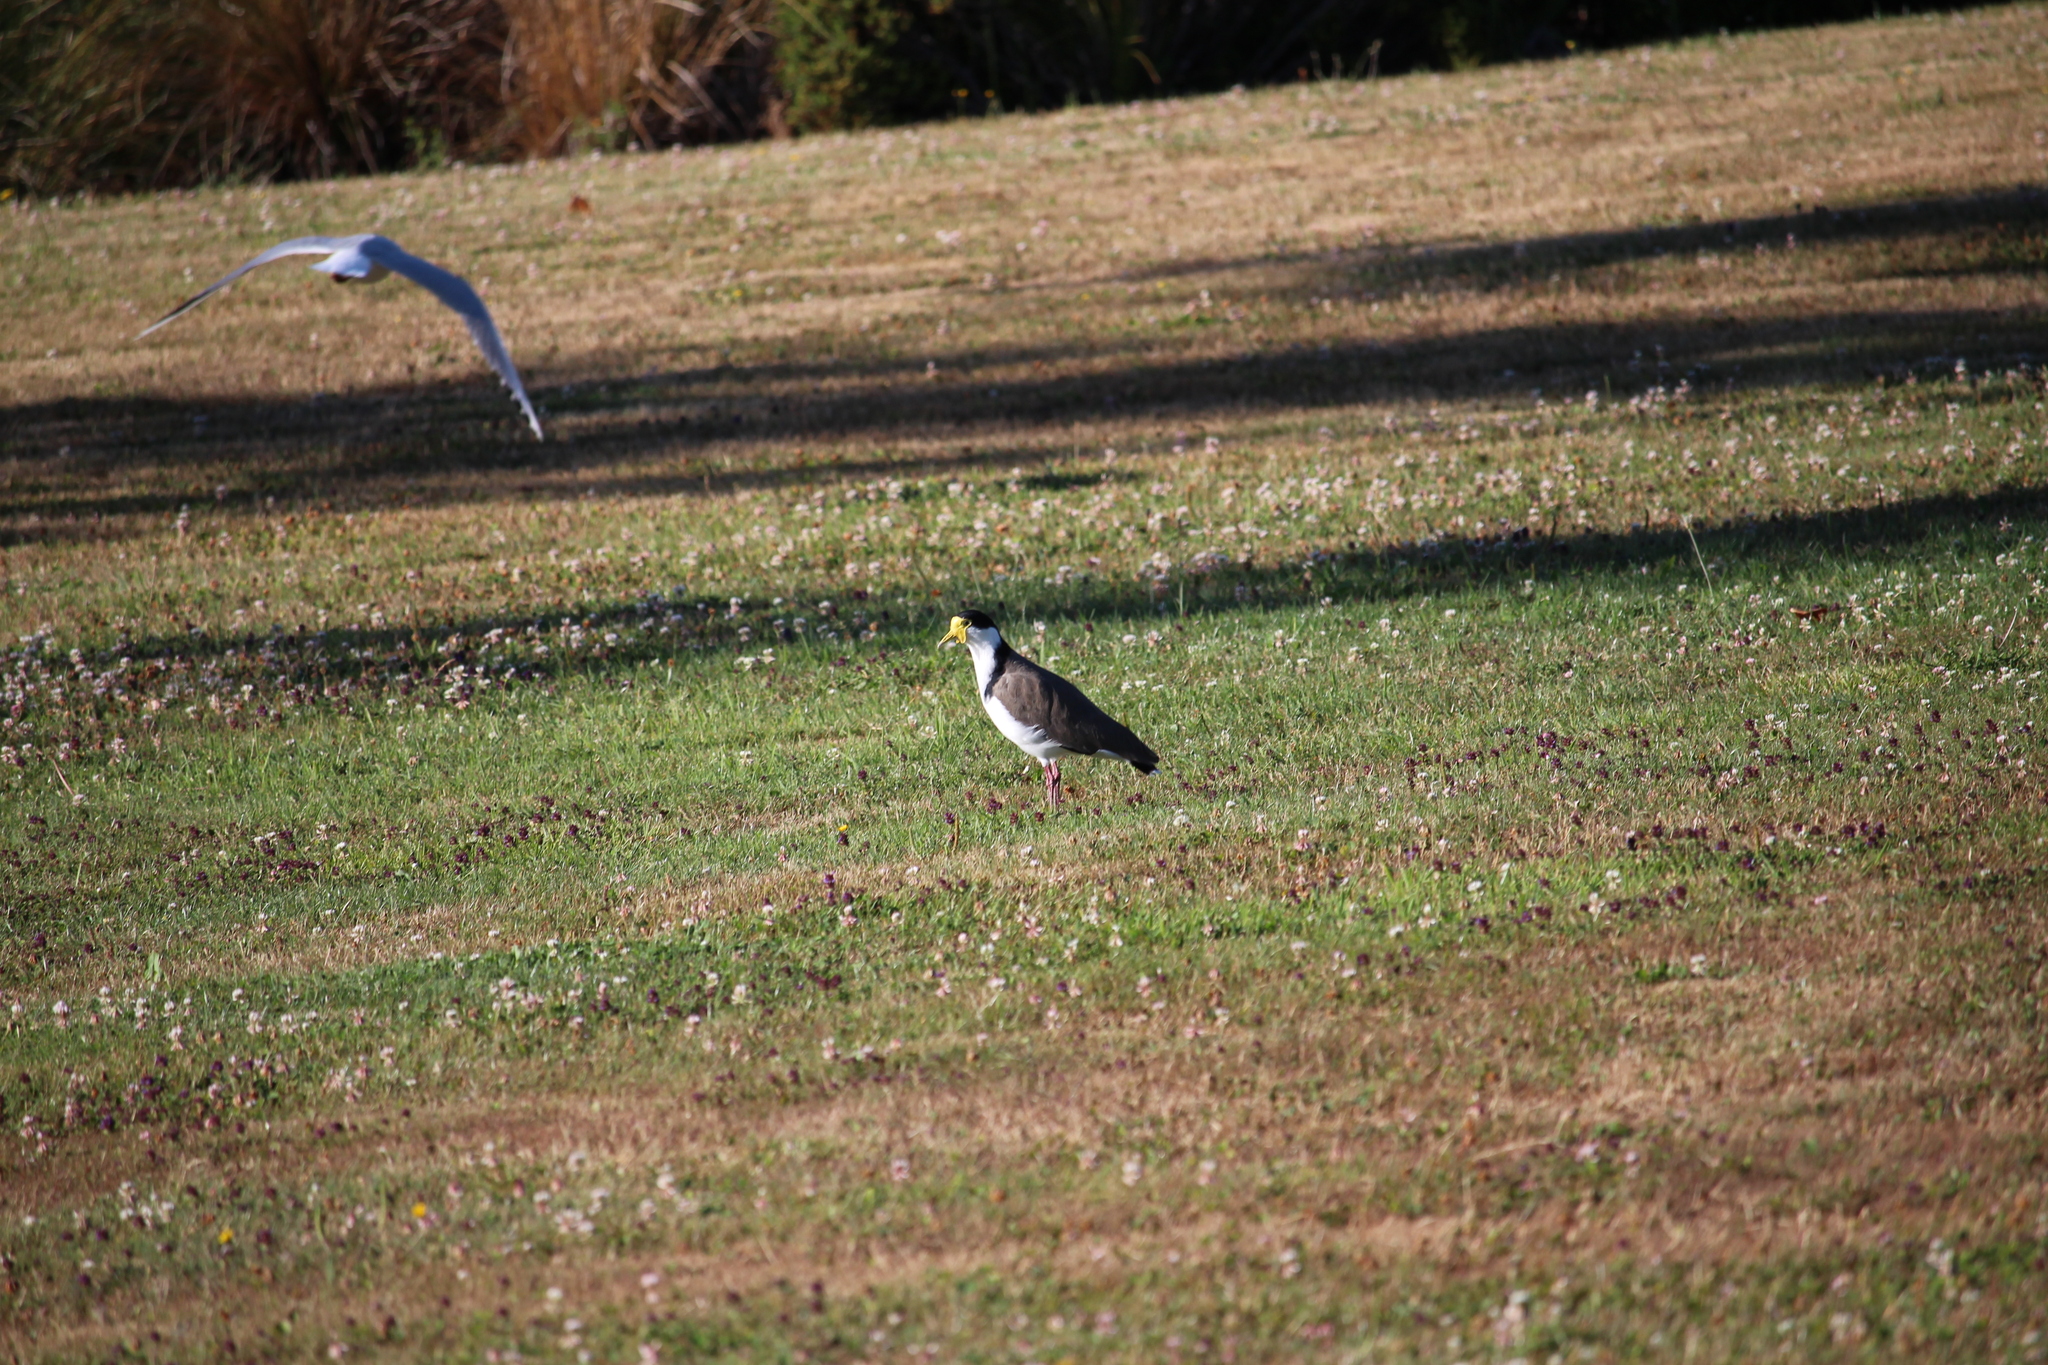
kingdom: Animalia
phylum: Chordata
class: Aves
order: Charadriiformes
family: Charadriidae
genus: Vanellus
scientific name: Vanellus miles
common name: Masked lapwing
